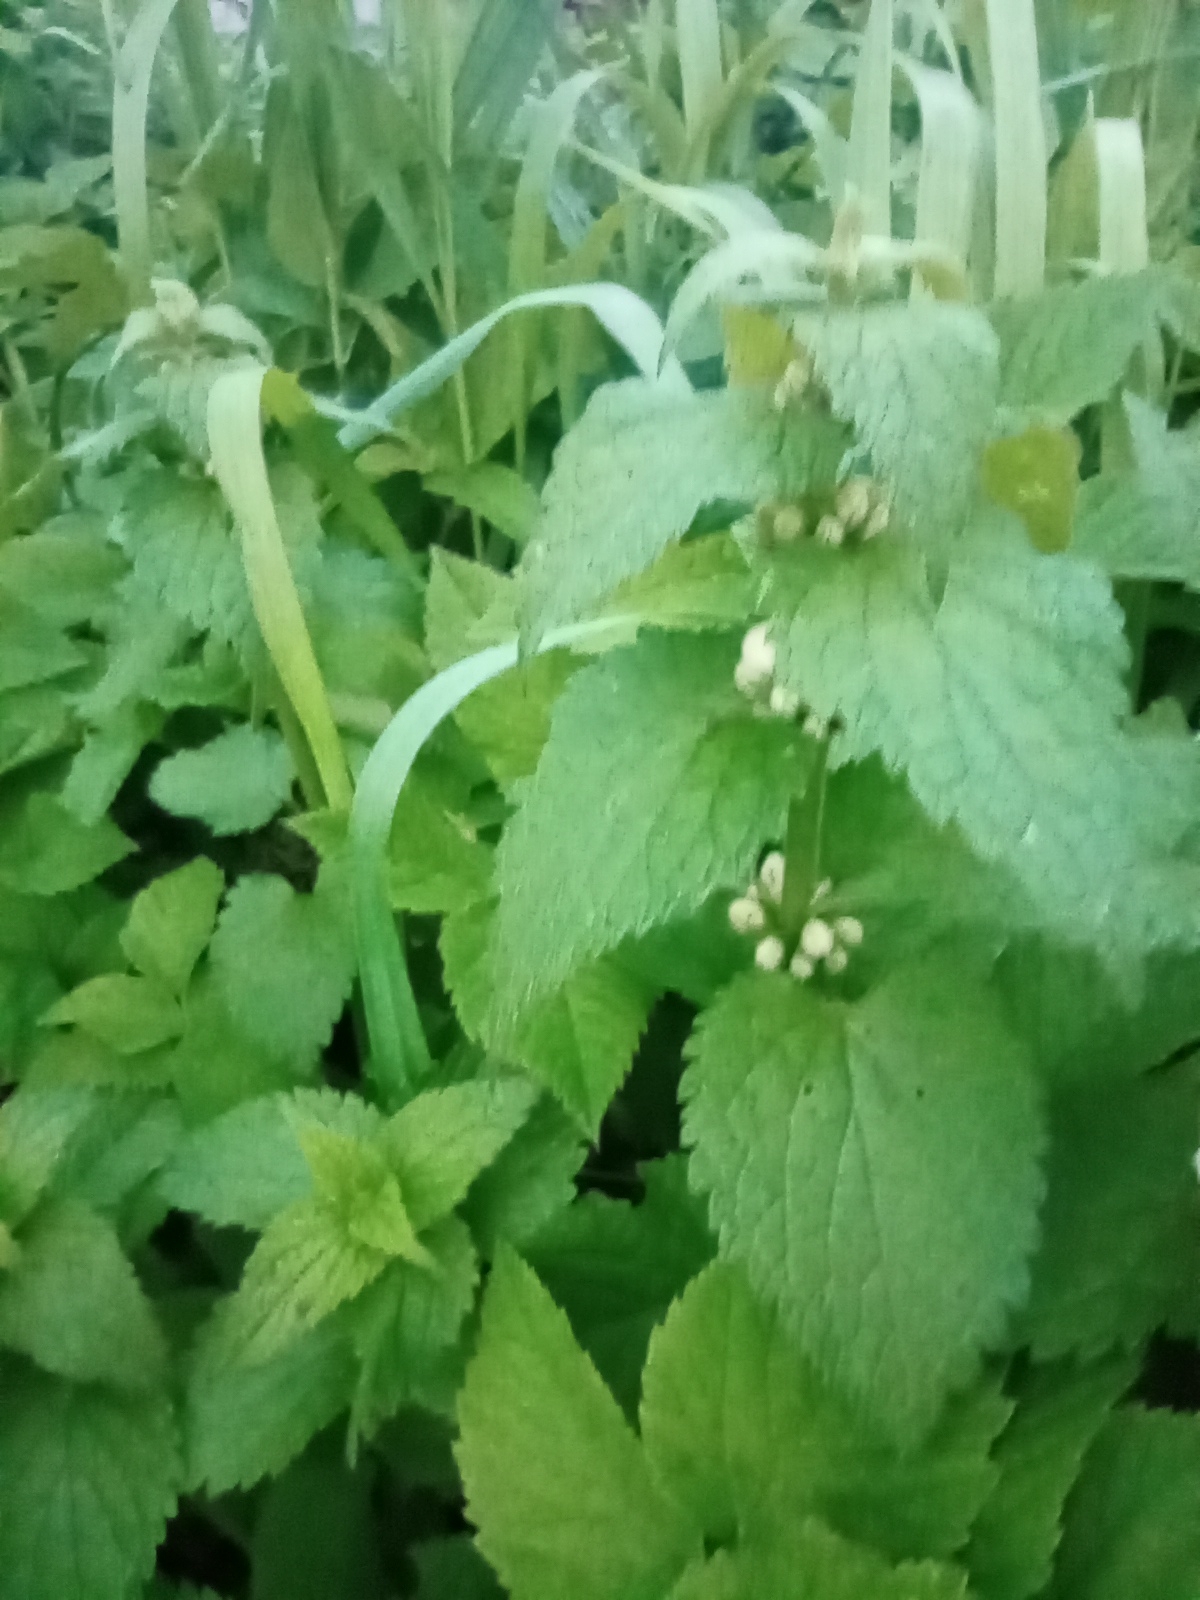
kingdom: Plantae
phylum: Tracheophyta
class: Magnoliopsida
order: Lamiales
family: Lamiaceae
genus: Lamium
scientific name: Lamium album
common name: White dead-nettle
